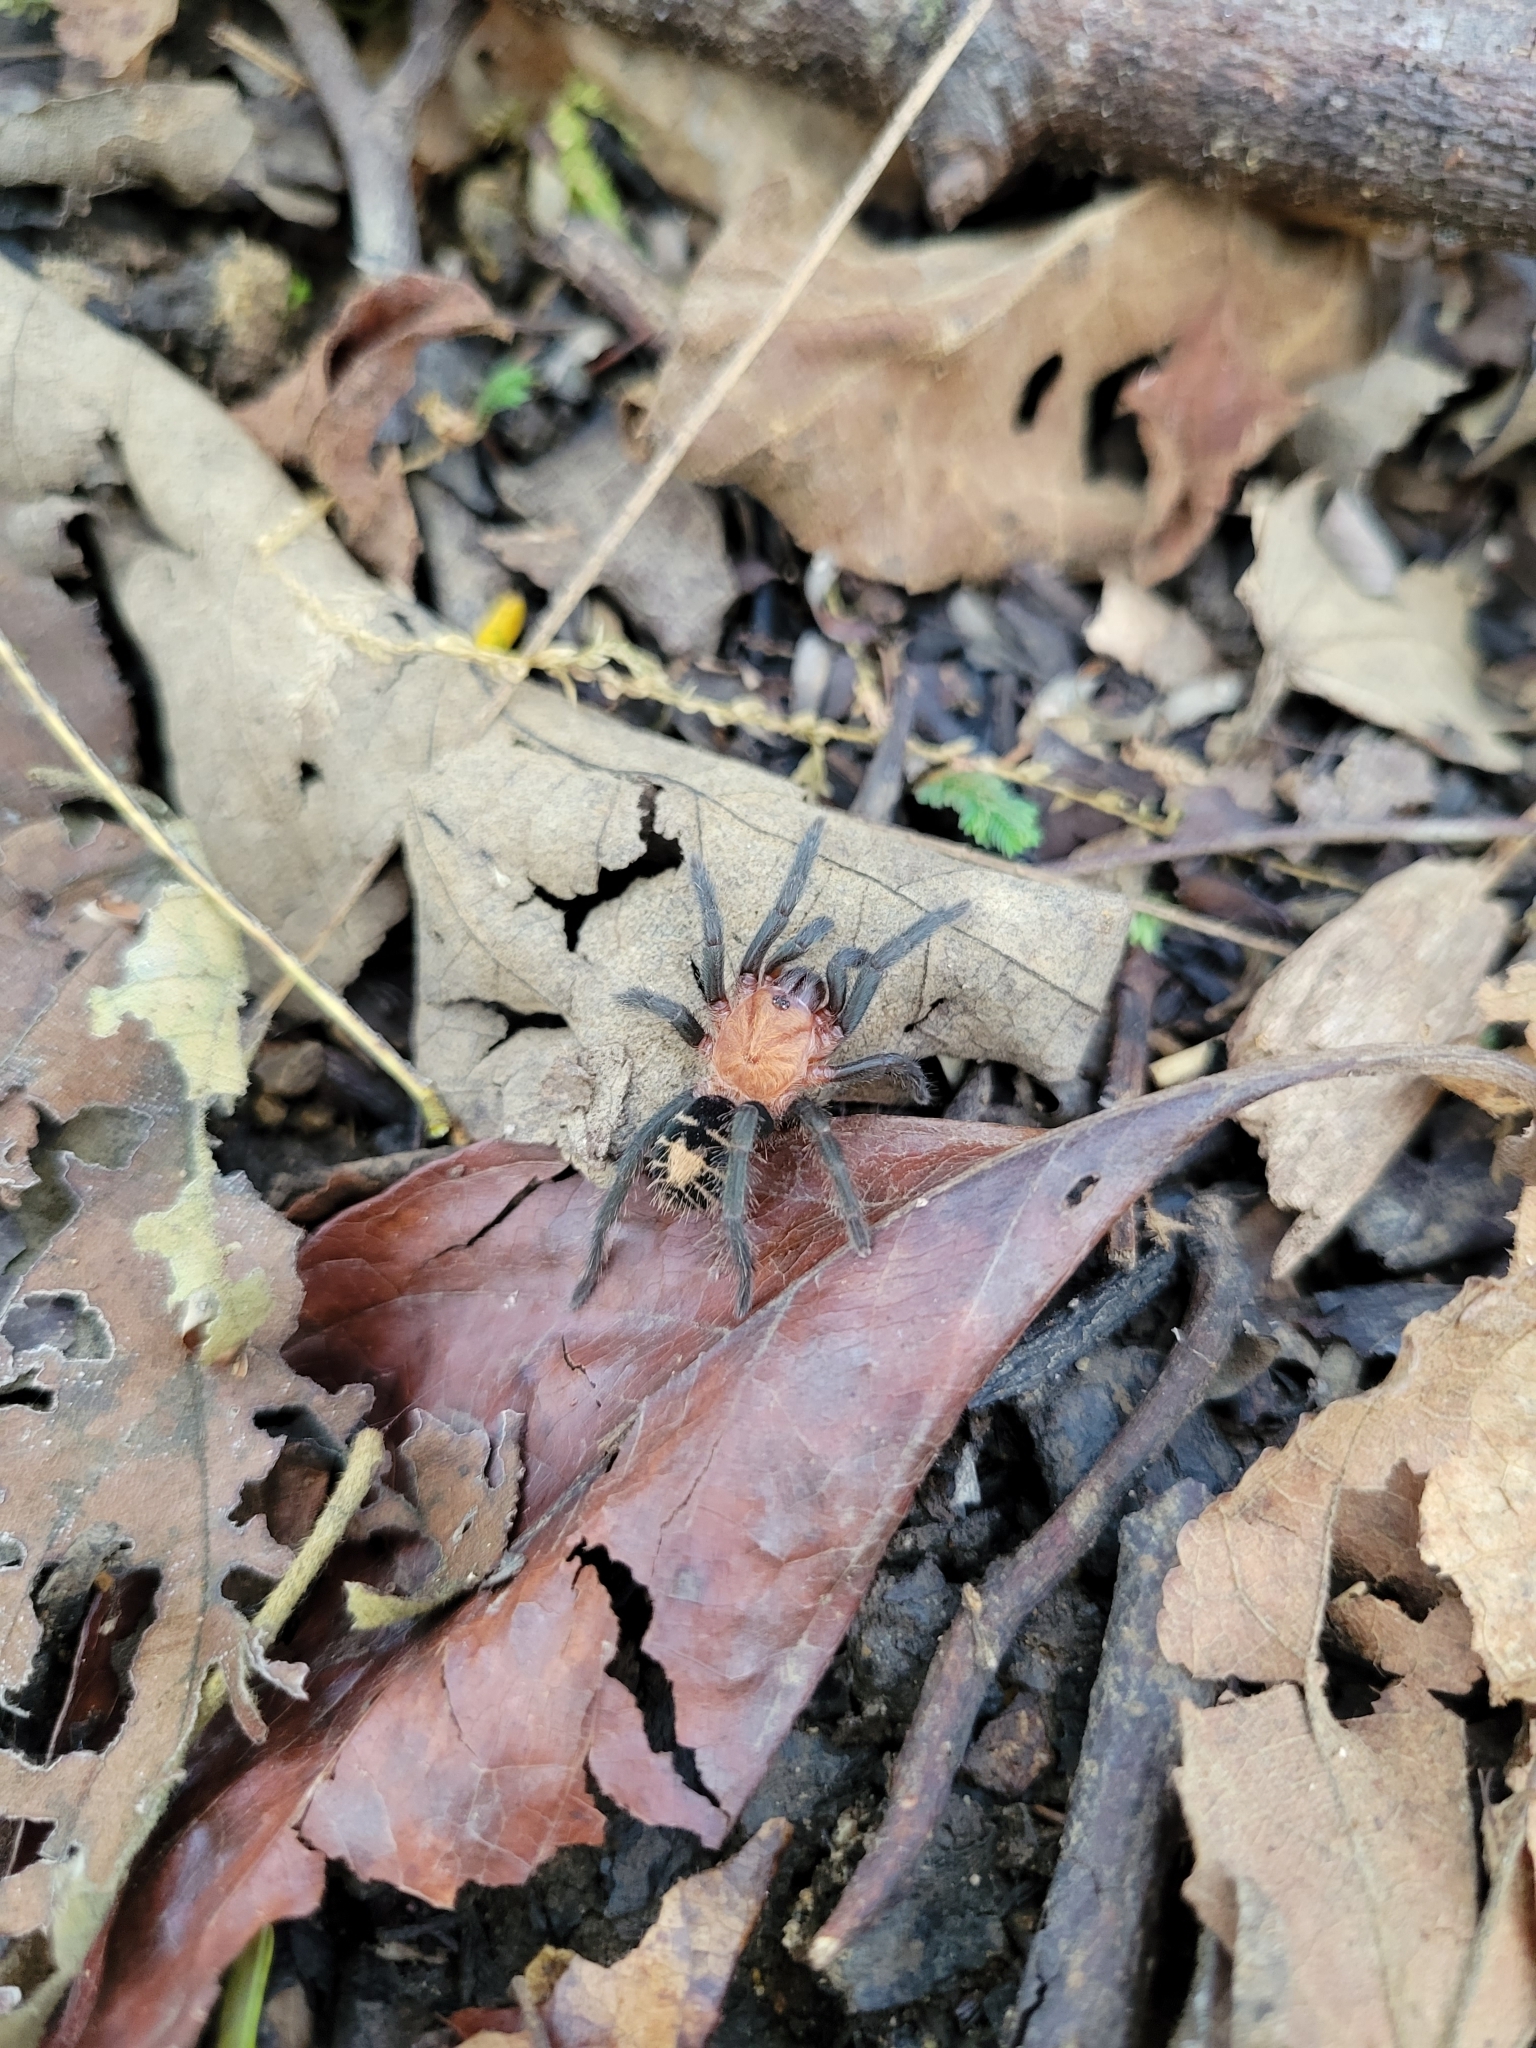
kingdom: Animalia
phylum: Arthropoda
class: Arachnida
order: Araneae
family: Theraphosidae
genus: Davus
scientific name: Davus ruficeps
